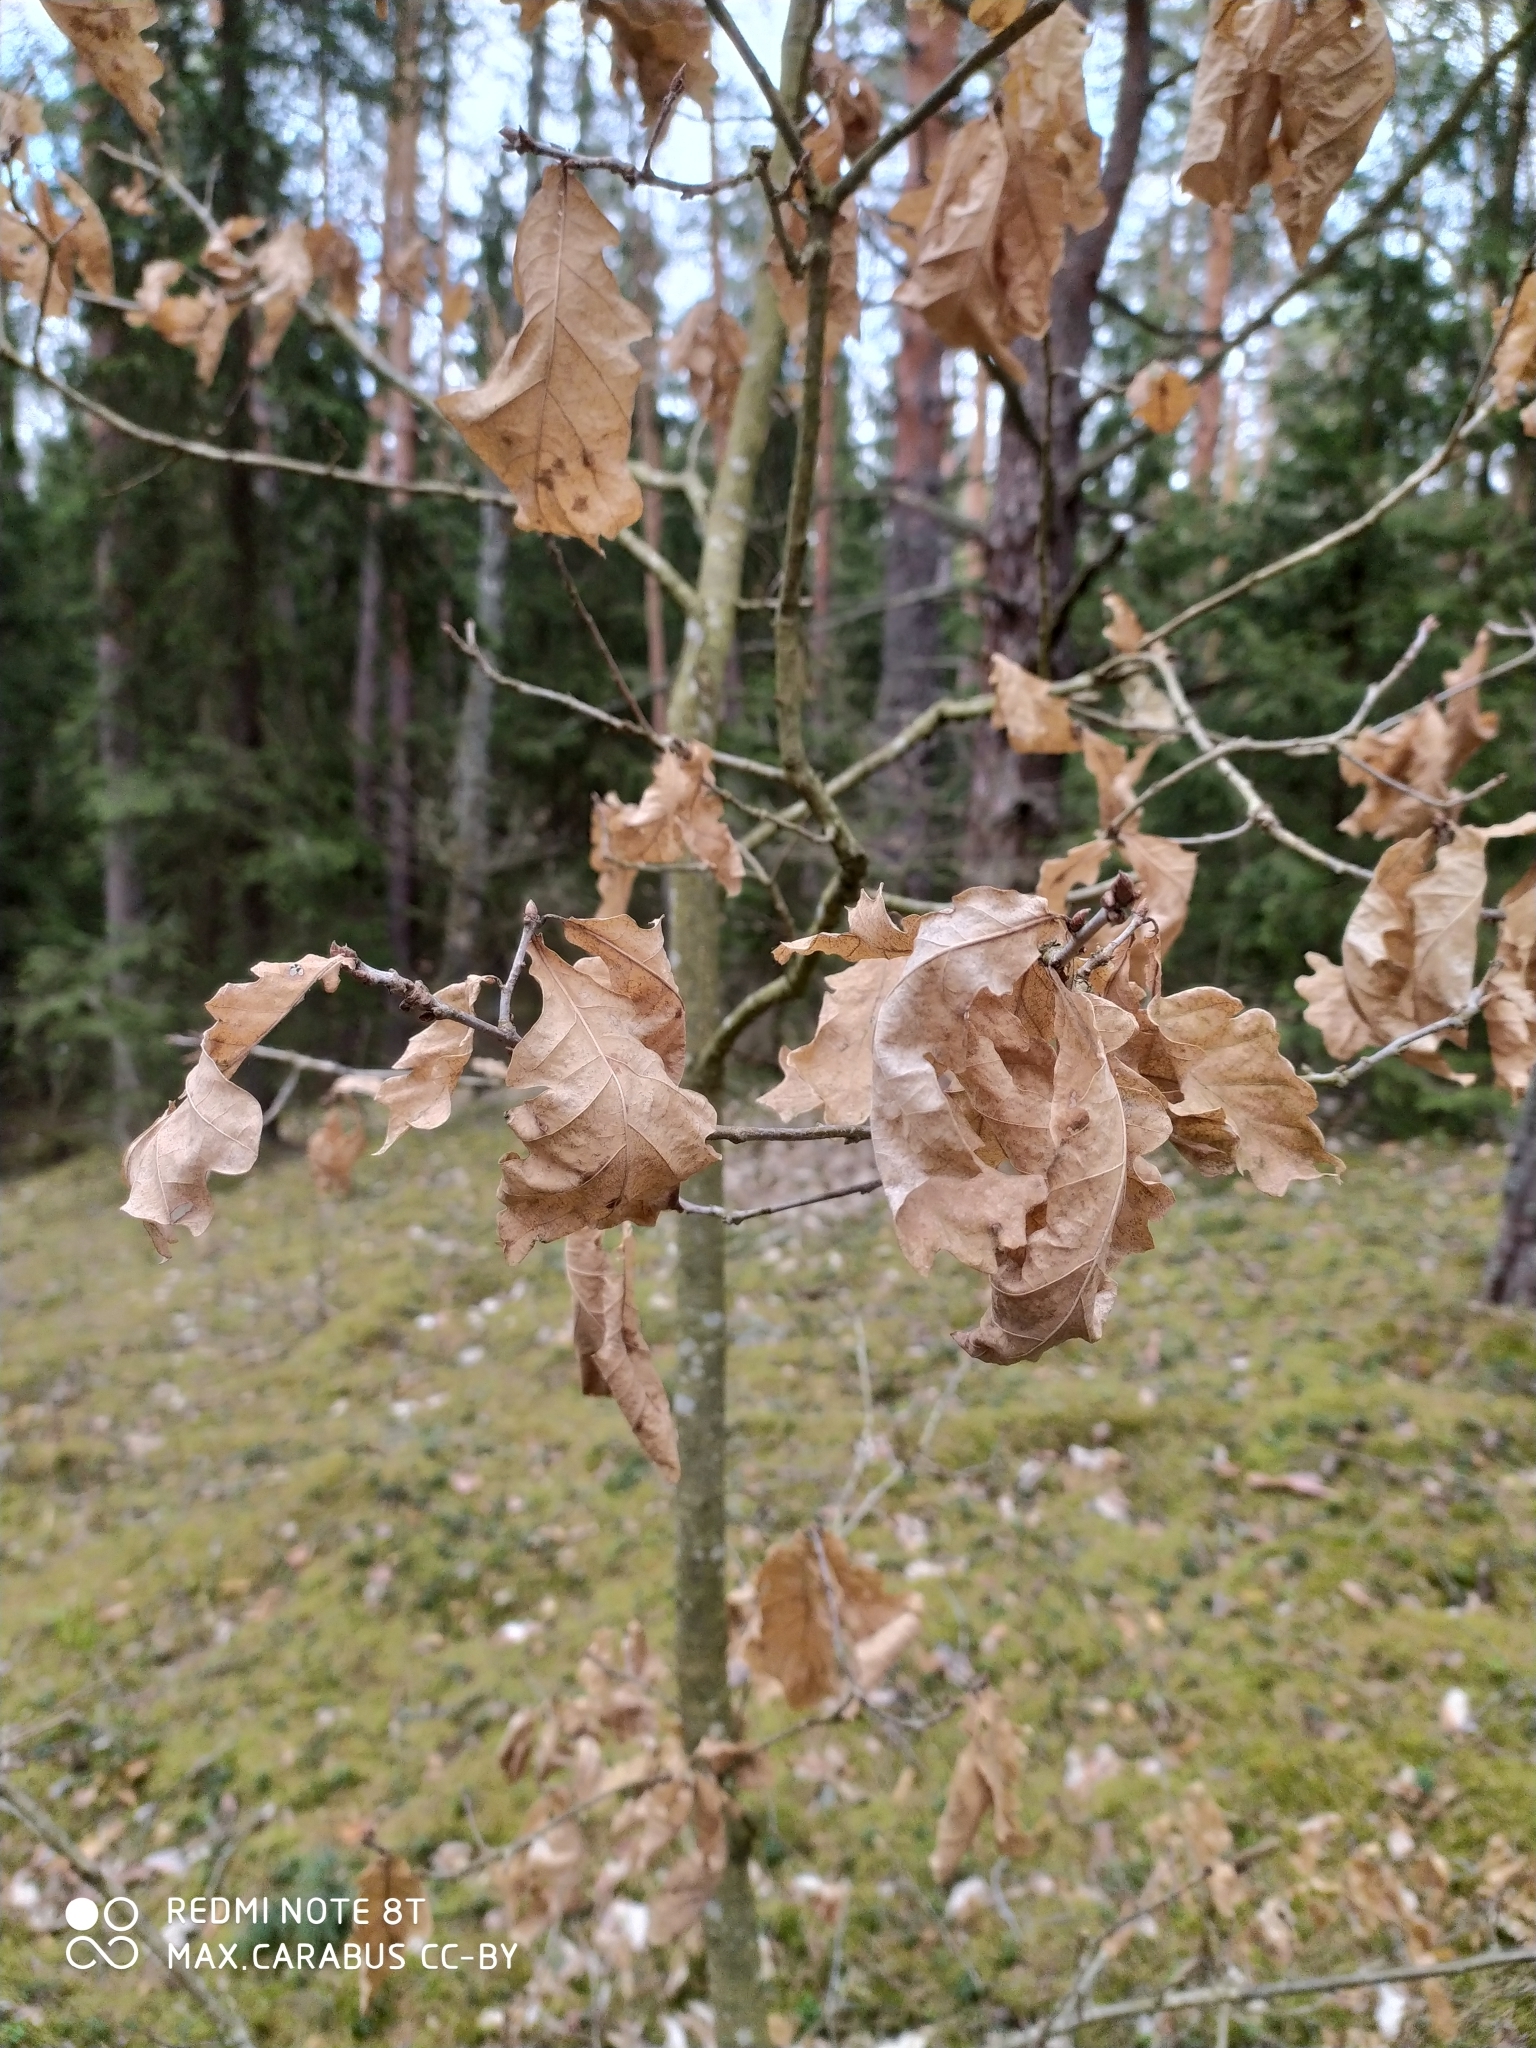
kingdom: Plantae
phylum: Tracheophyta
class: Magnoliopsida
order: Fagales
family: Fagaceae
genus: Quercus
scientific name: Quercus robur
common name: Pedunculate oak
